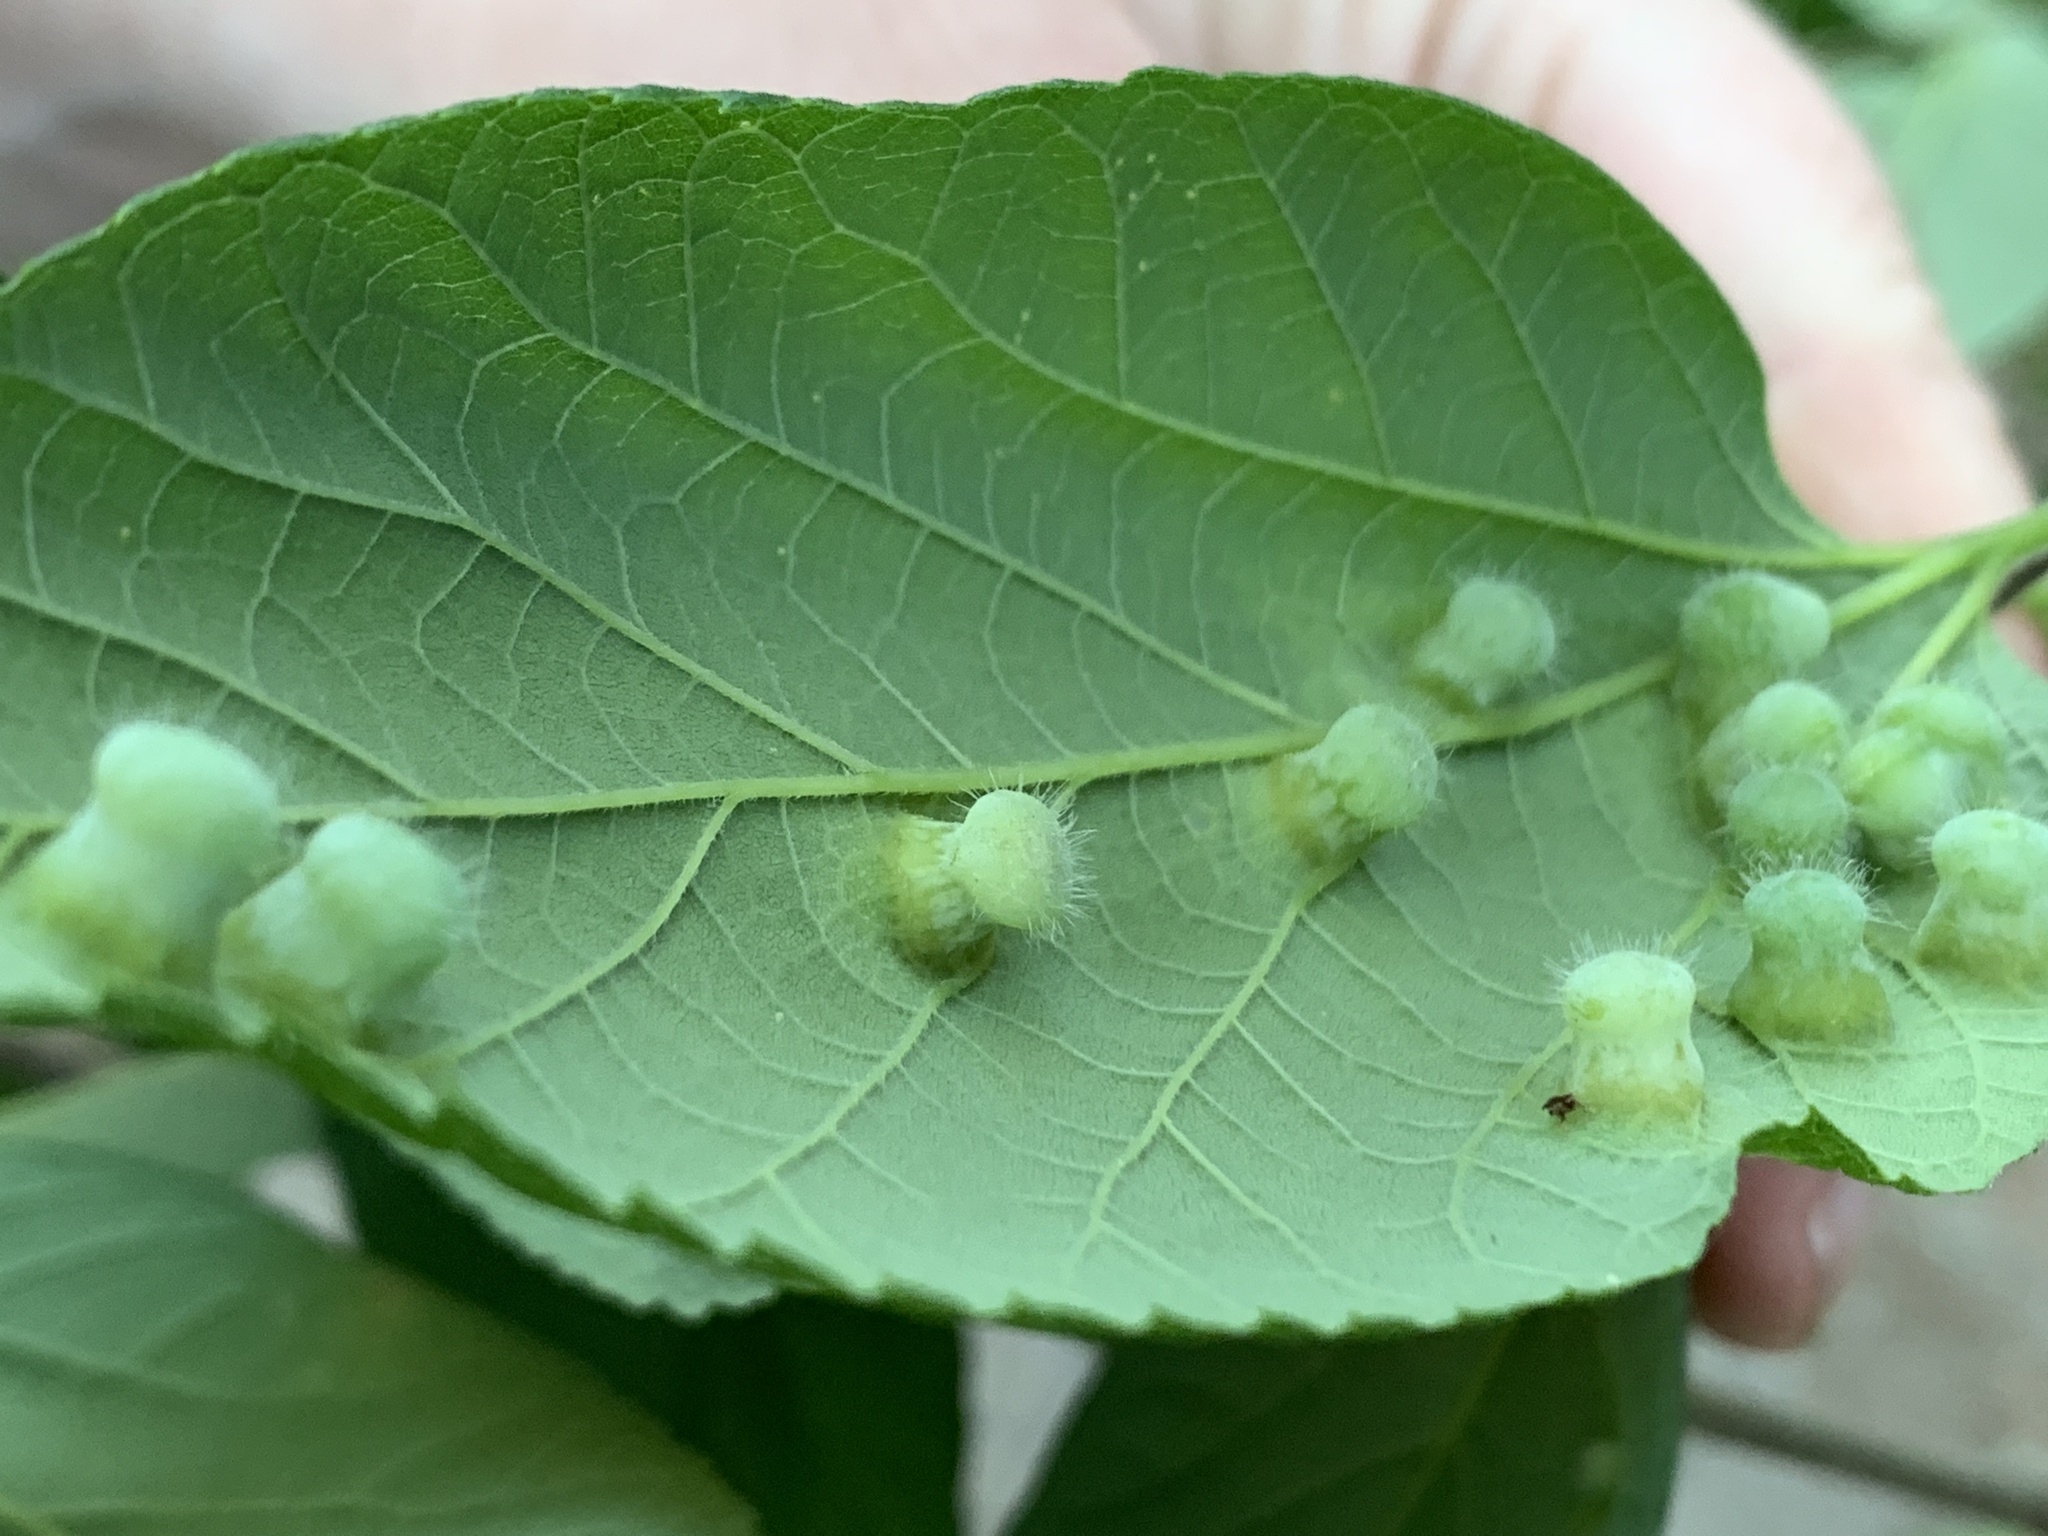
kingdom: Animalia
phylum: Arthropoda
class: Insecta
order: Hemiptera
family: Aphalaridae
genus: Pachypsylla
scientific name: Pachypsylla celtidismamma
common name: Hackberry nipplegall psyllid
